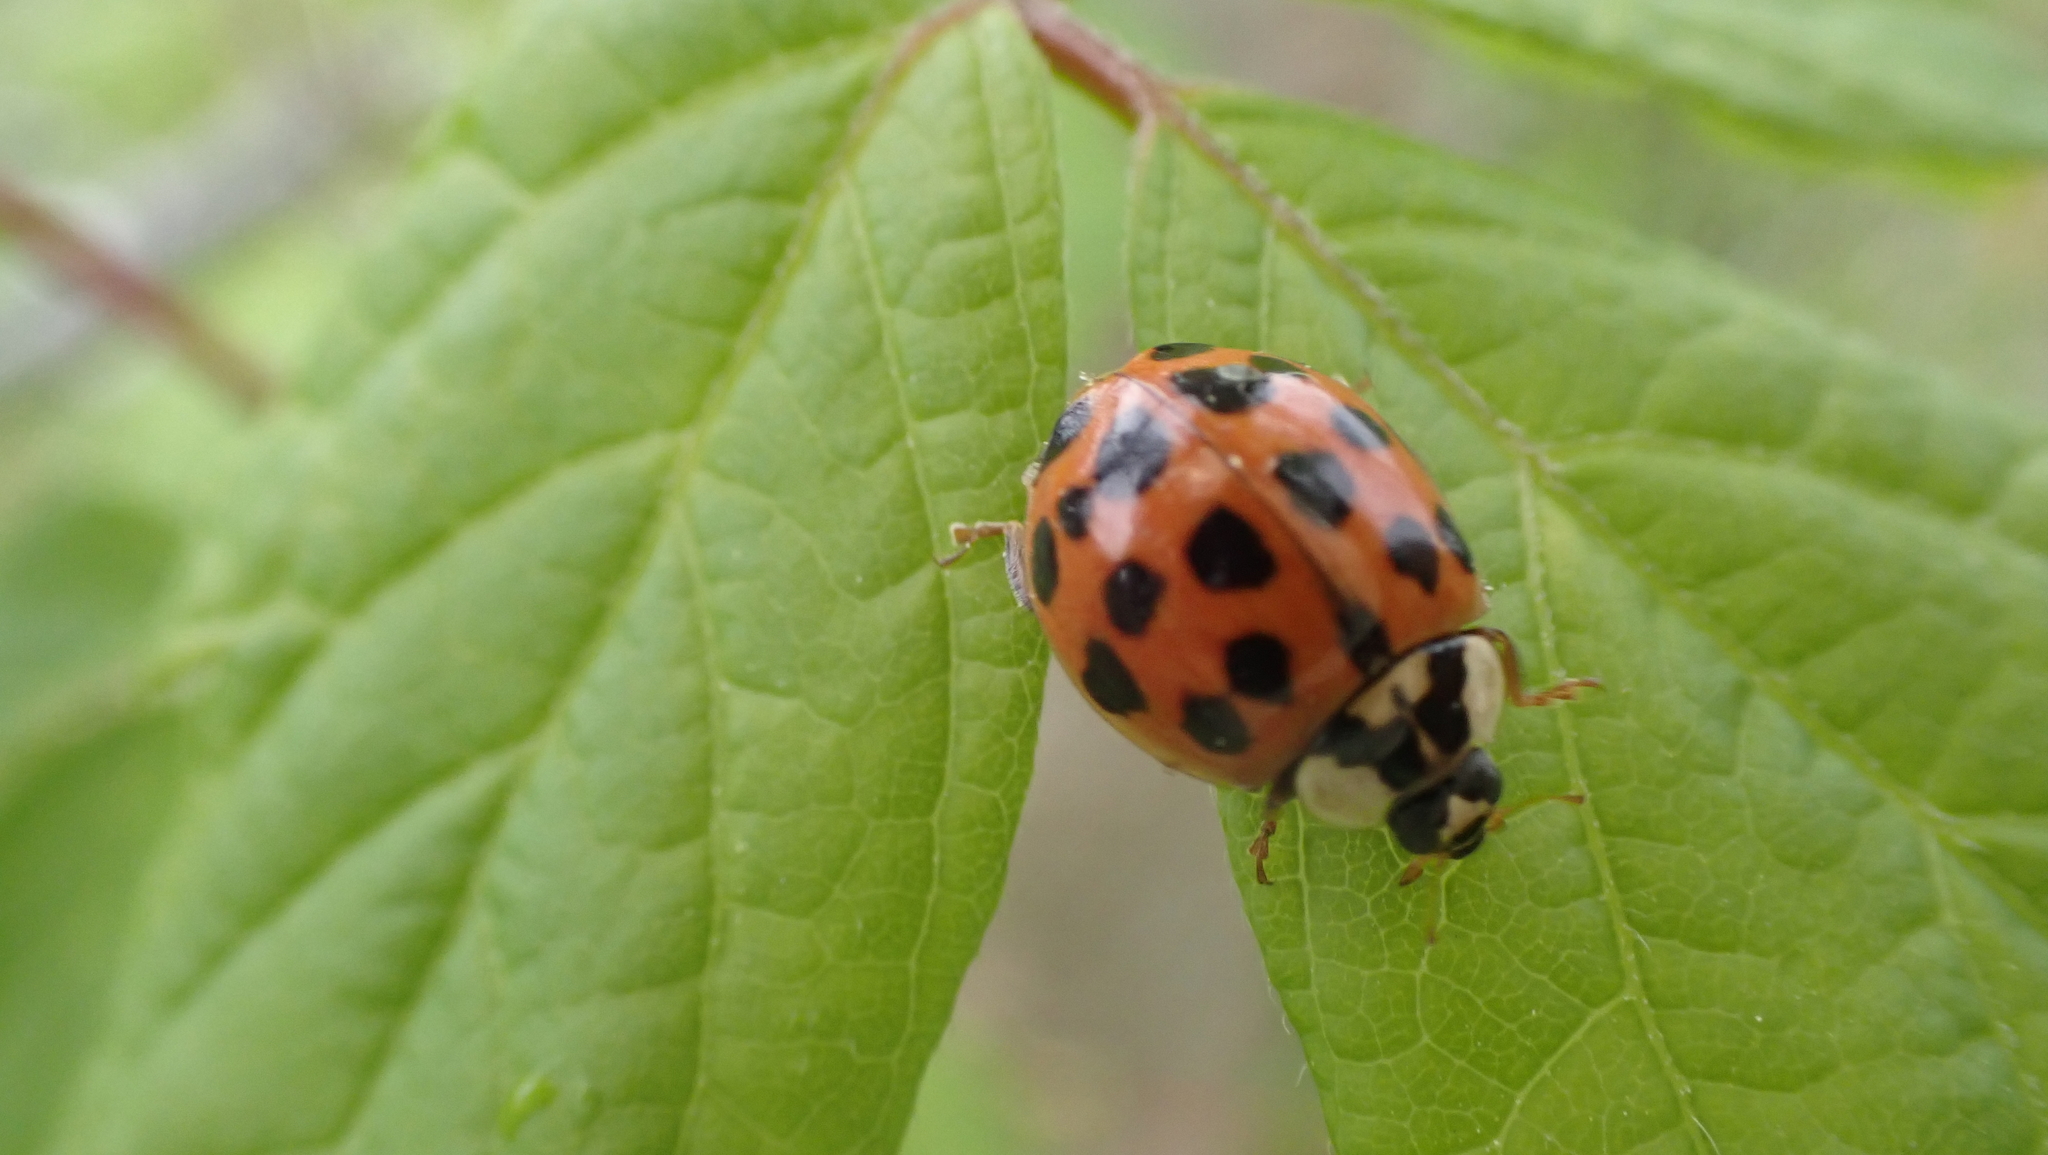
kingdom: Animalia
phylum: Arthropoda
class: Insecta
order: Coleoptera
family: Coccinellidae
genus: Harmonia
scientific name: Harmonia axyridis
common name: Harlequin ladybird
